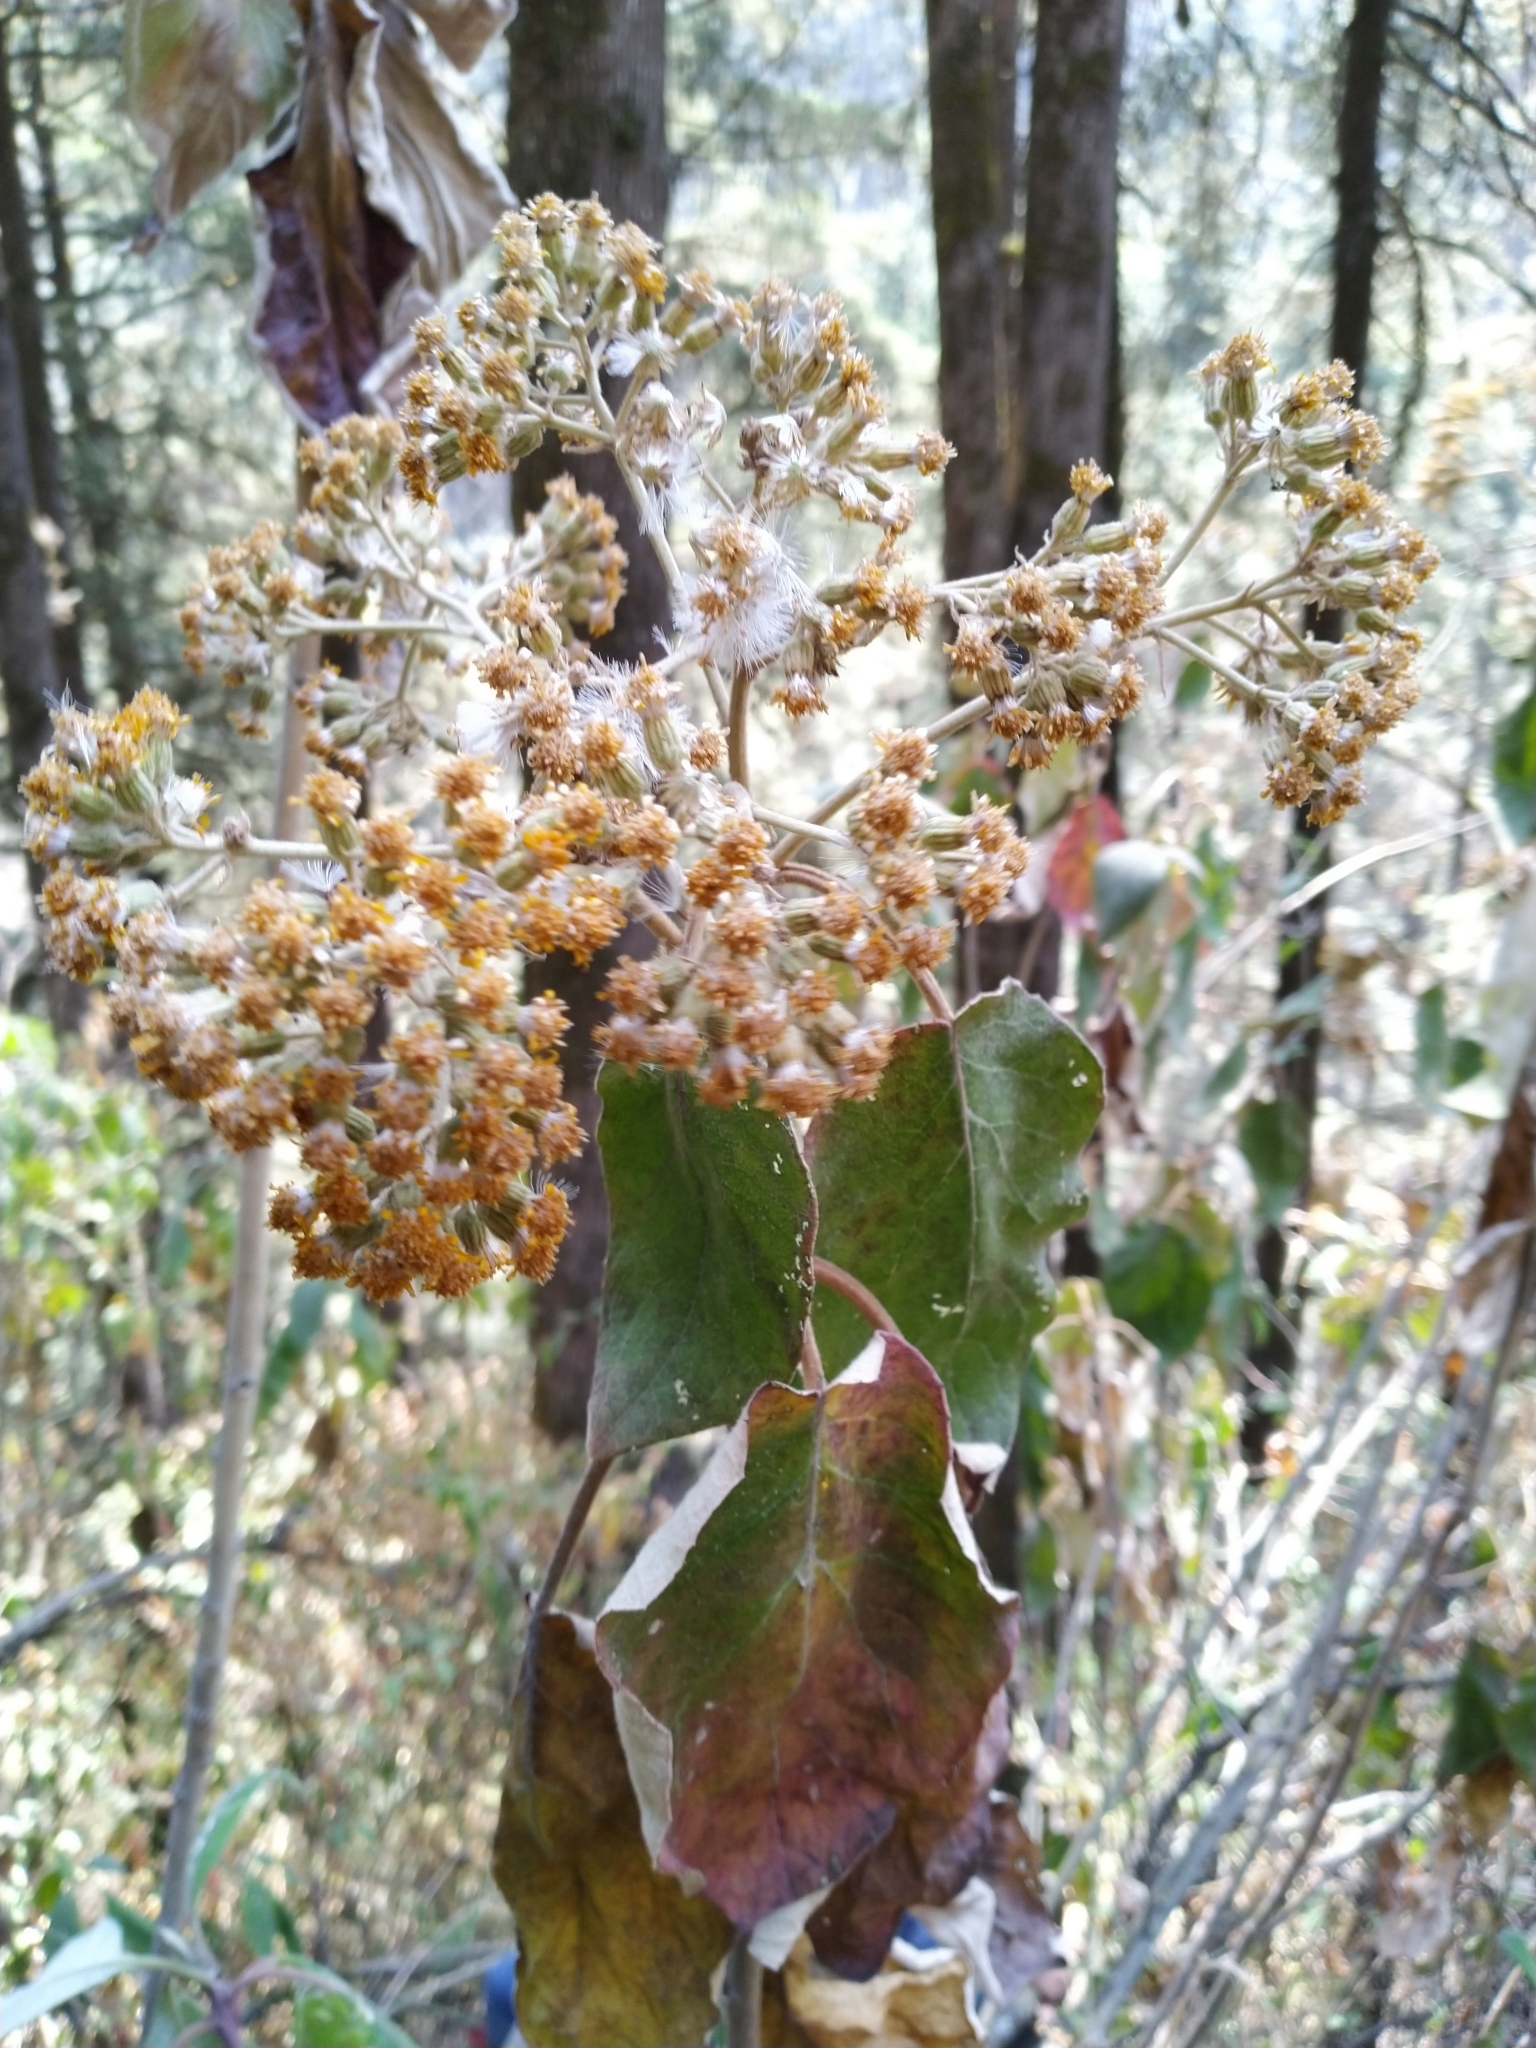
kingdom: Plantae
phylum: Tracheophyta
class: Magnoliopsida
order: Asterales
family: Asteraceae
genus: Roldana
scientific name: Roldana barba-johannis
